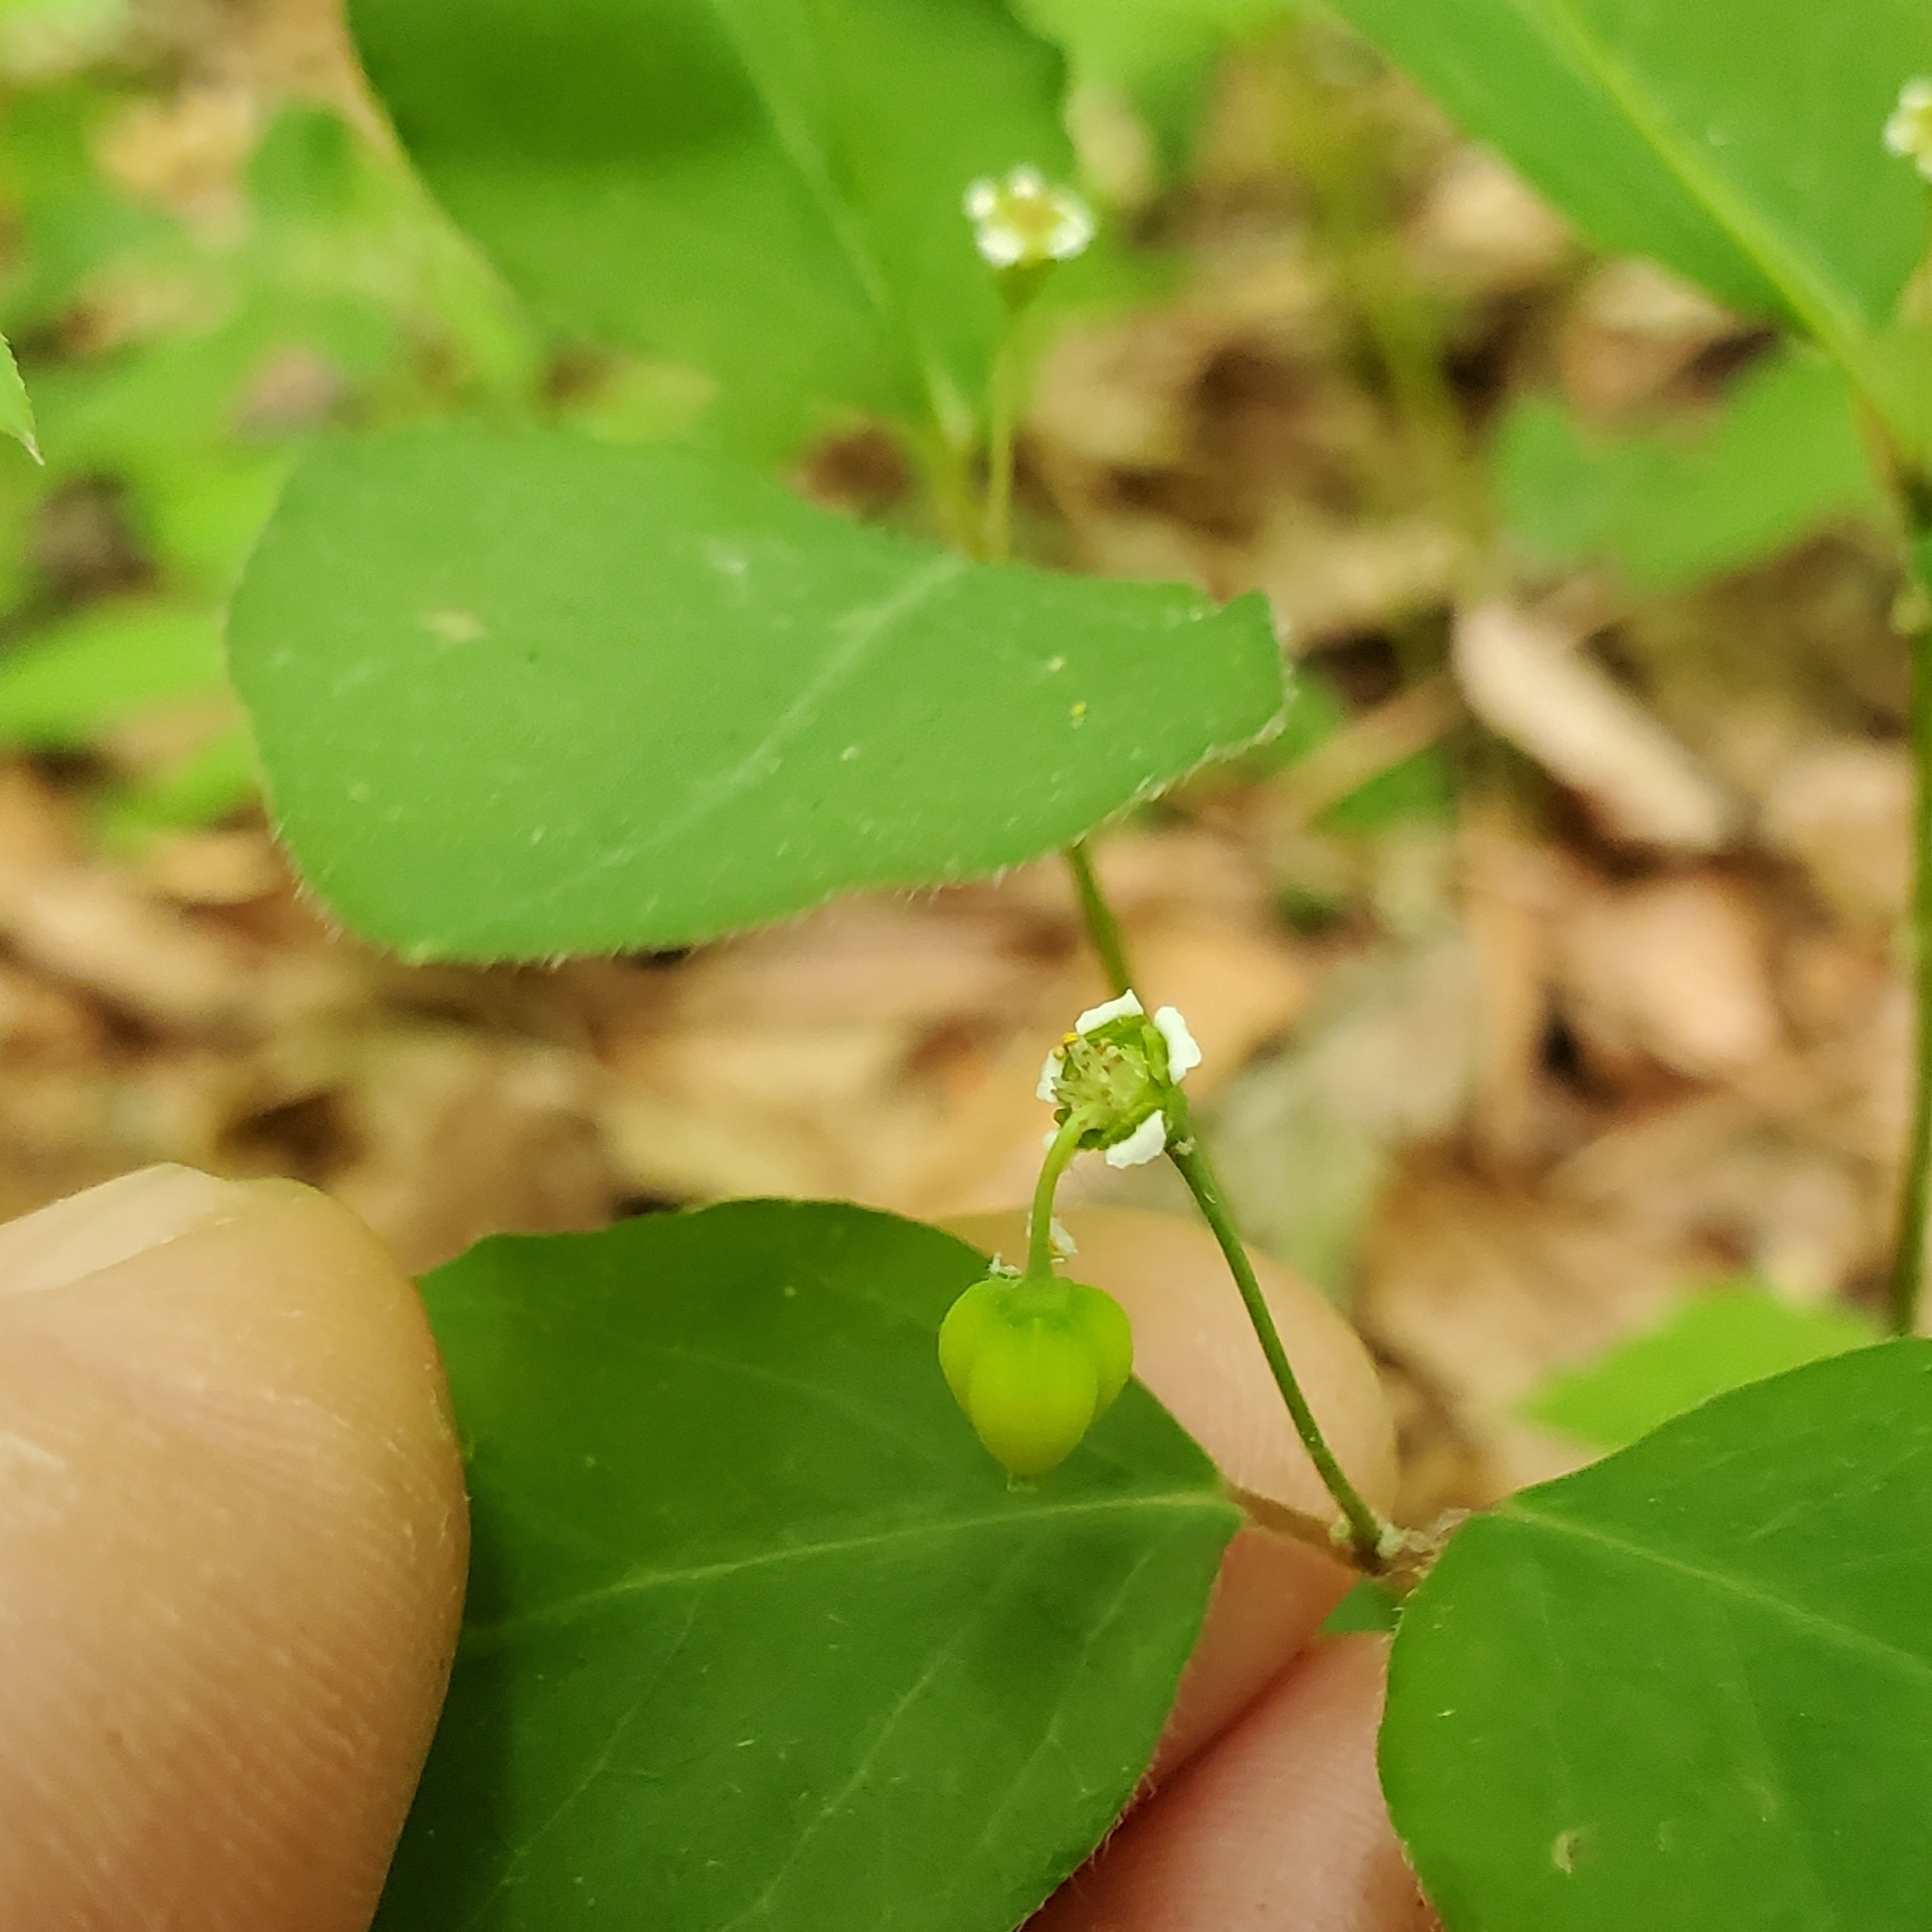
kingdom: Plantae
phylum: Tracheophyta
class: Magnoliopsida
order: Malpighiales
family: Euphorbiaceae
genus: Euphorbia
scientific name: Euphorbia mercurialina
